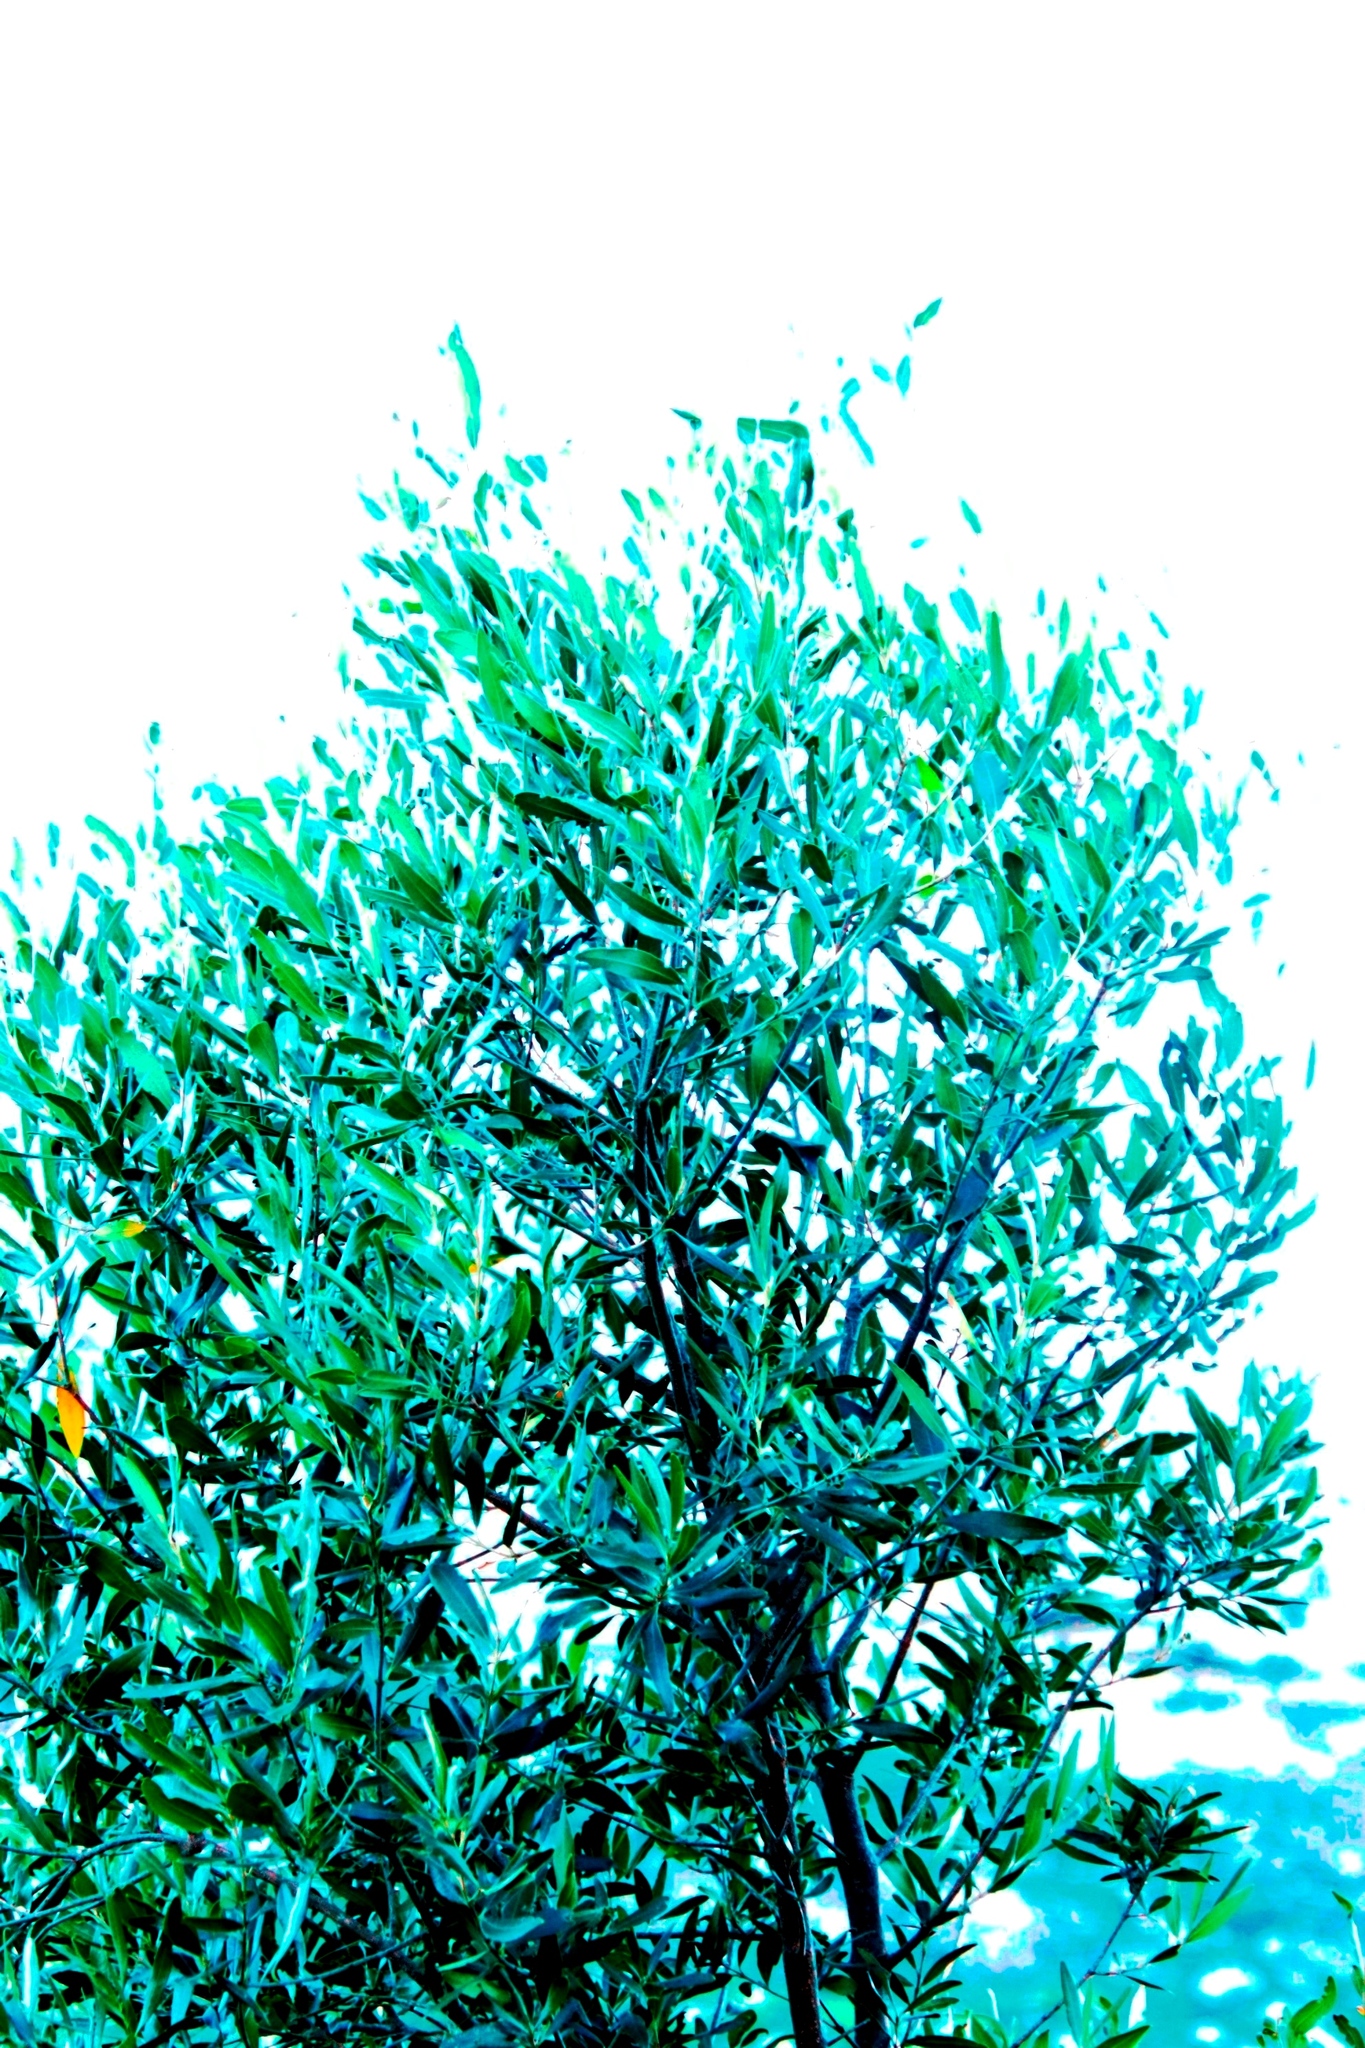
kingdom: Plantae
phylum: Tracheophyta
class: Magnoliopsida
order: Lamiales
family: Oleaceae
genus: Olea
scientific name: Olea europaea
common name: Olive
